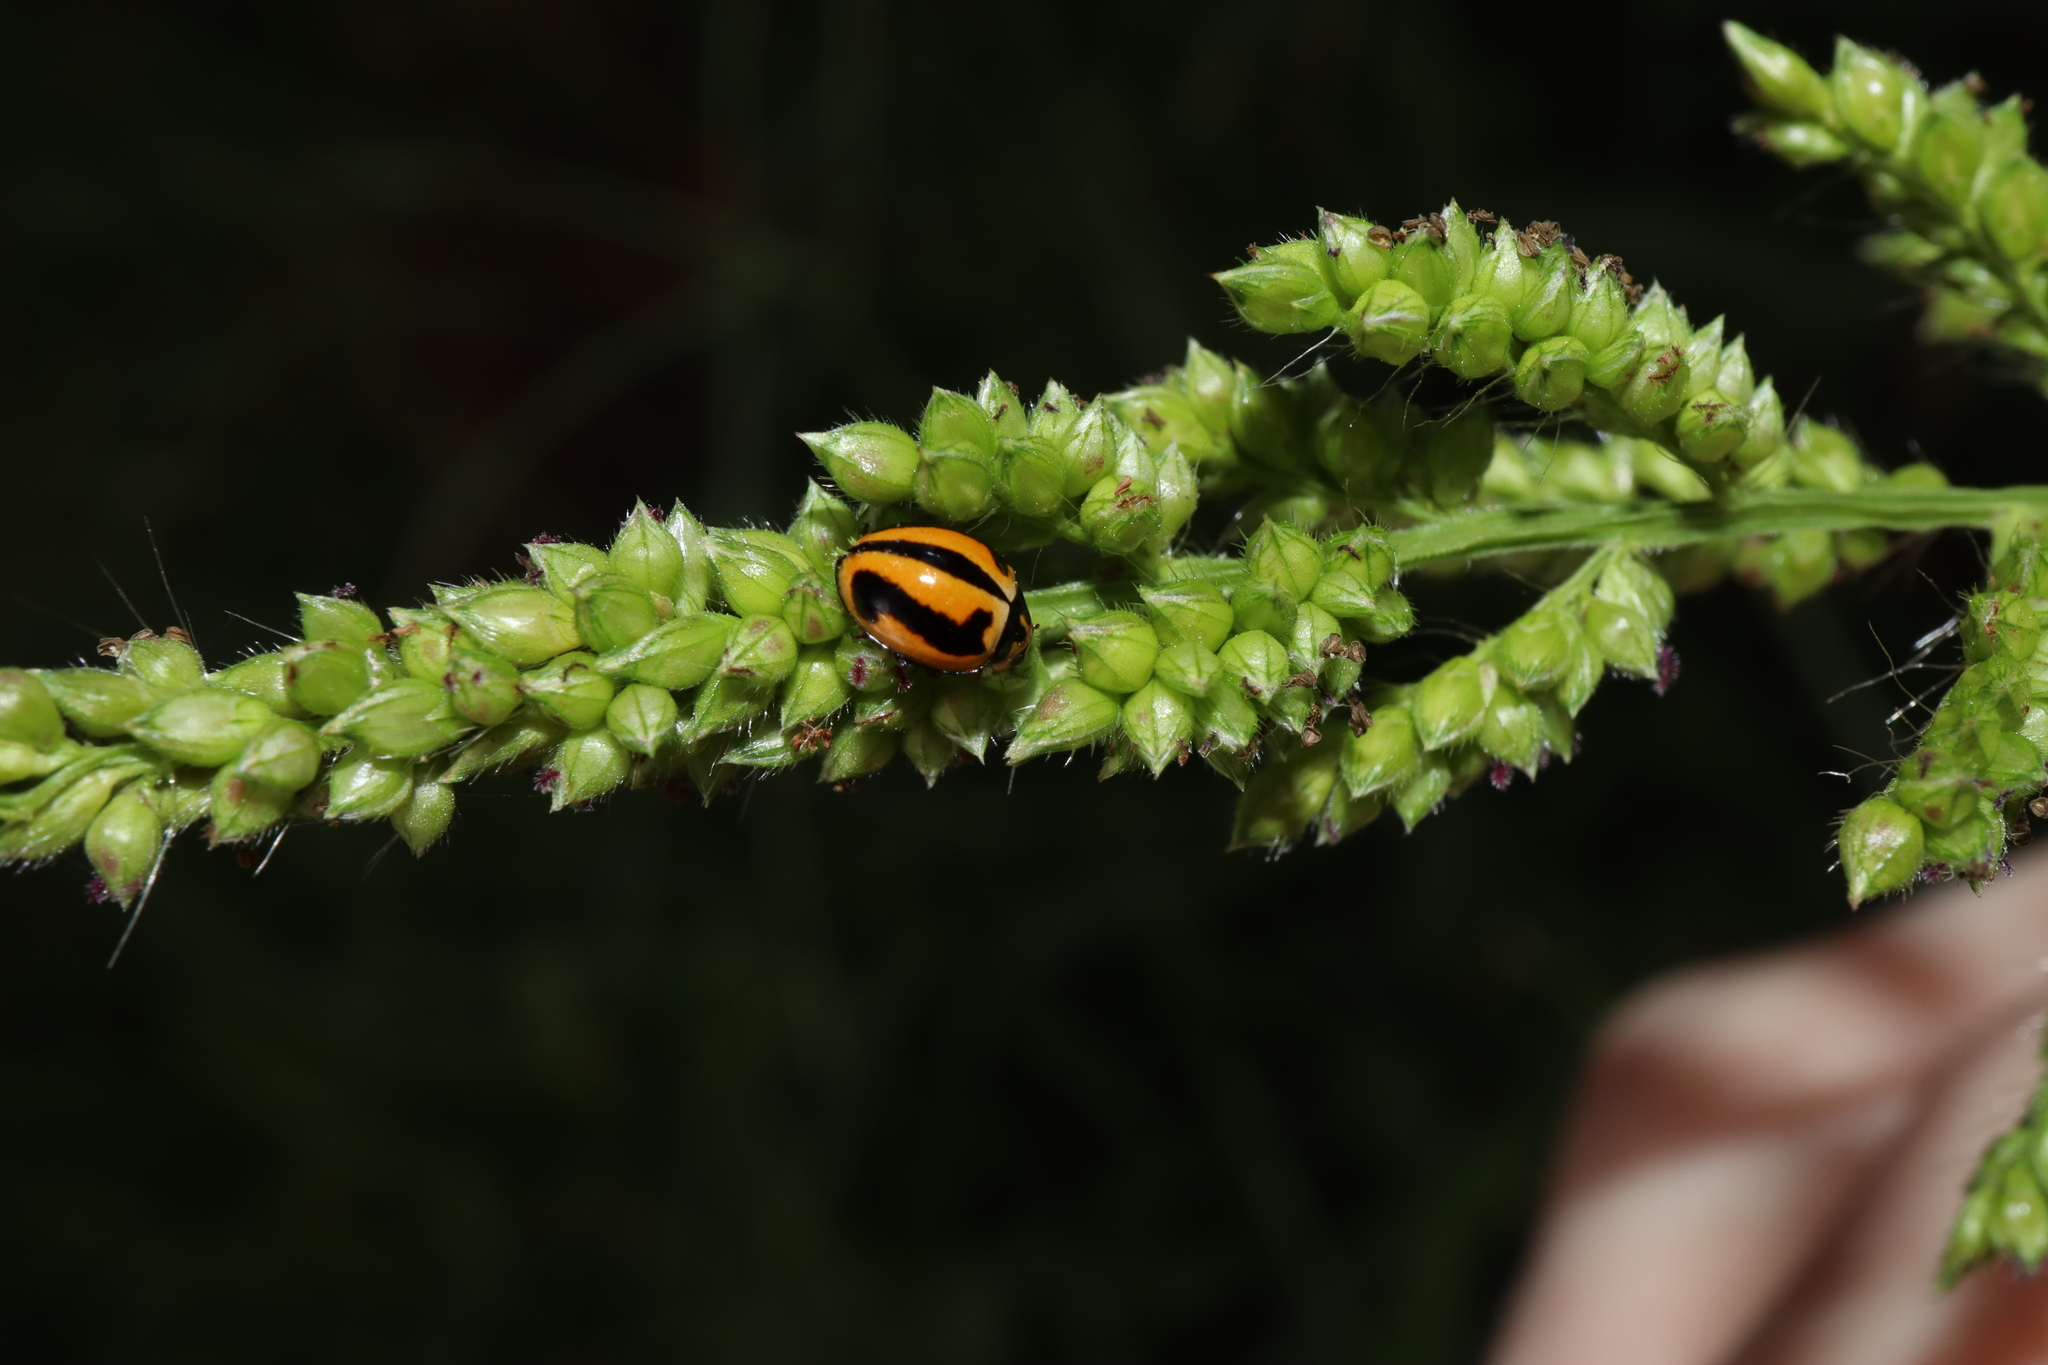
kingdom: Animalia
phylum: Arthropoda
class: Insecta
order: Coleoptera
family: Coccinellidae
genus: Micraspis
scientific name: Micraspis frenata
